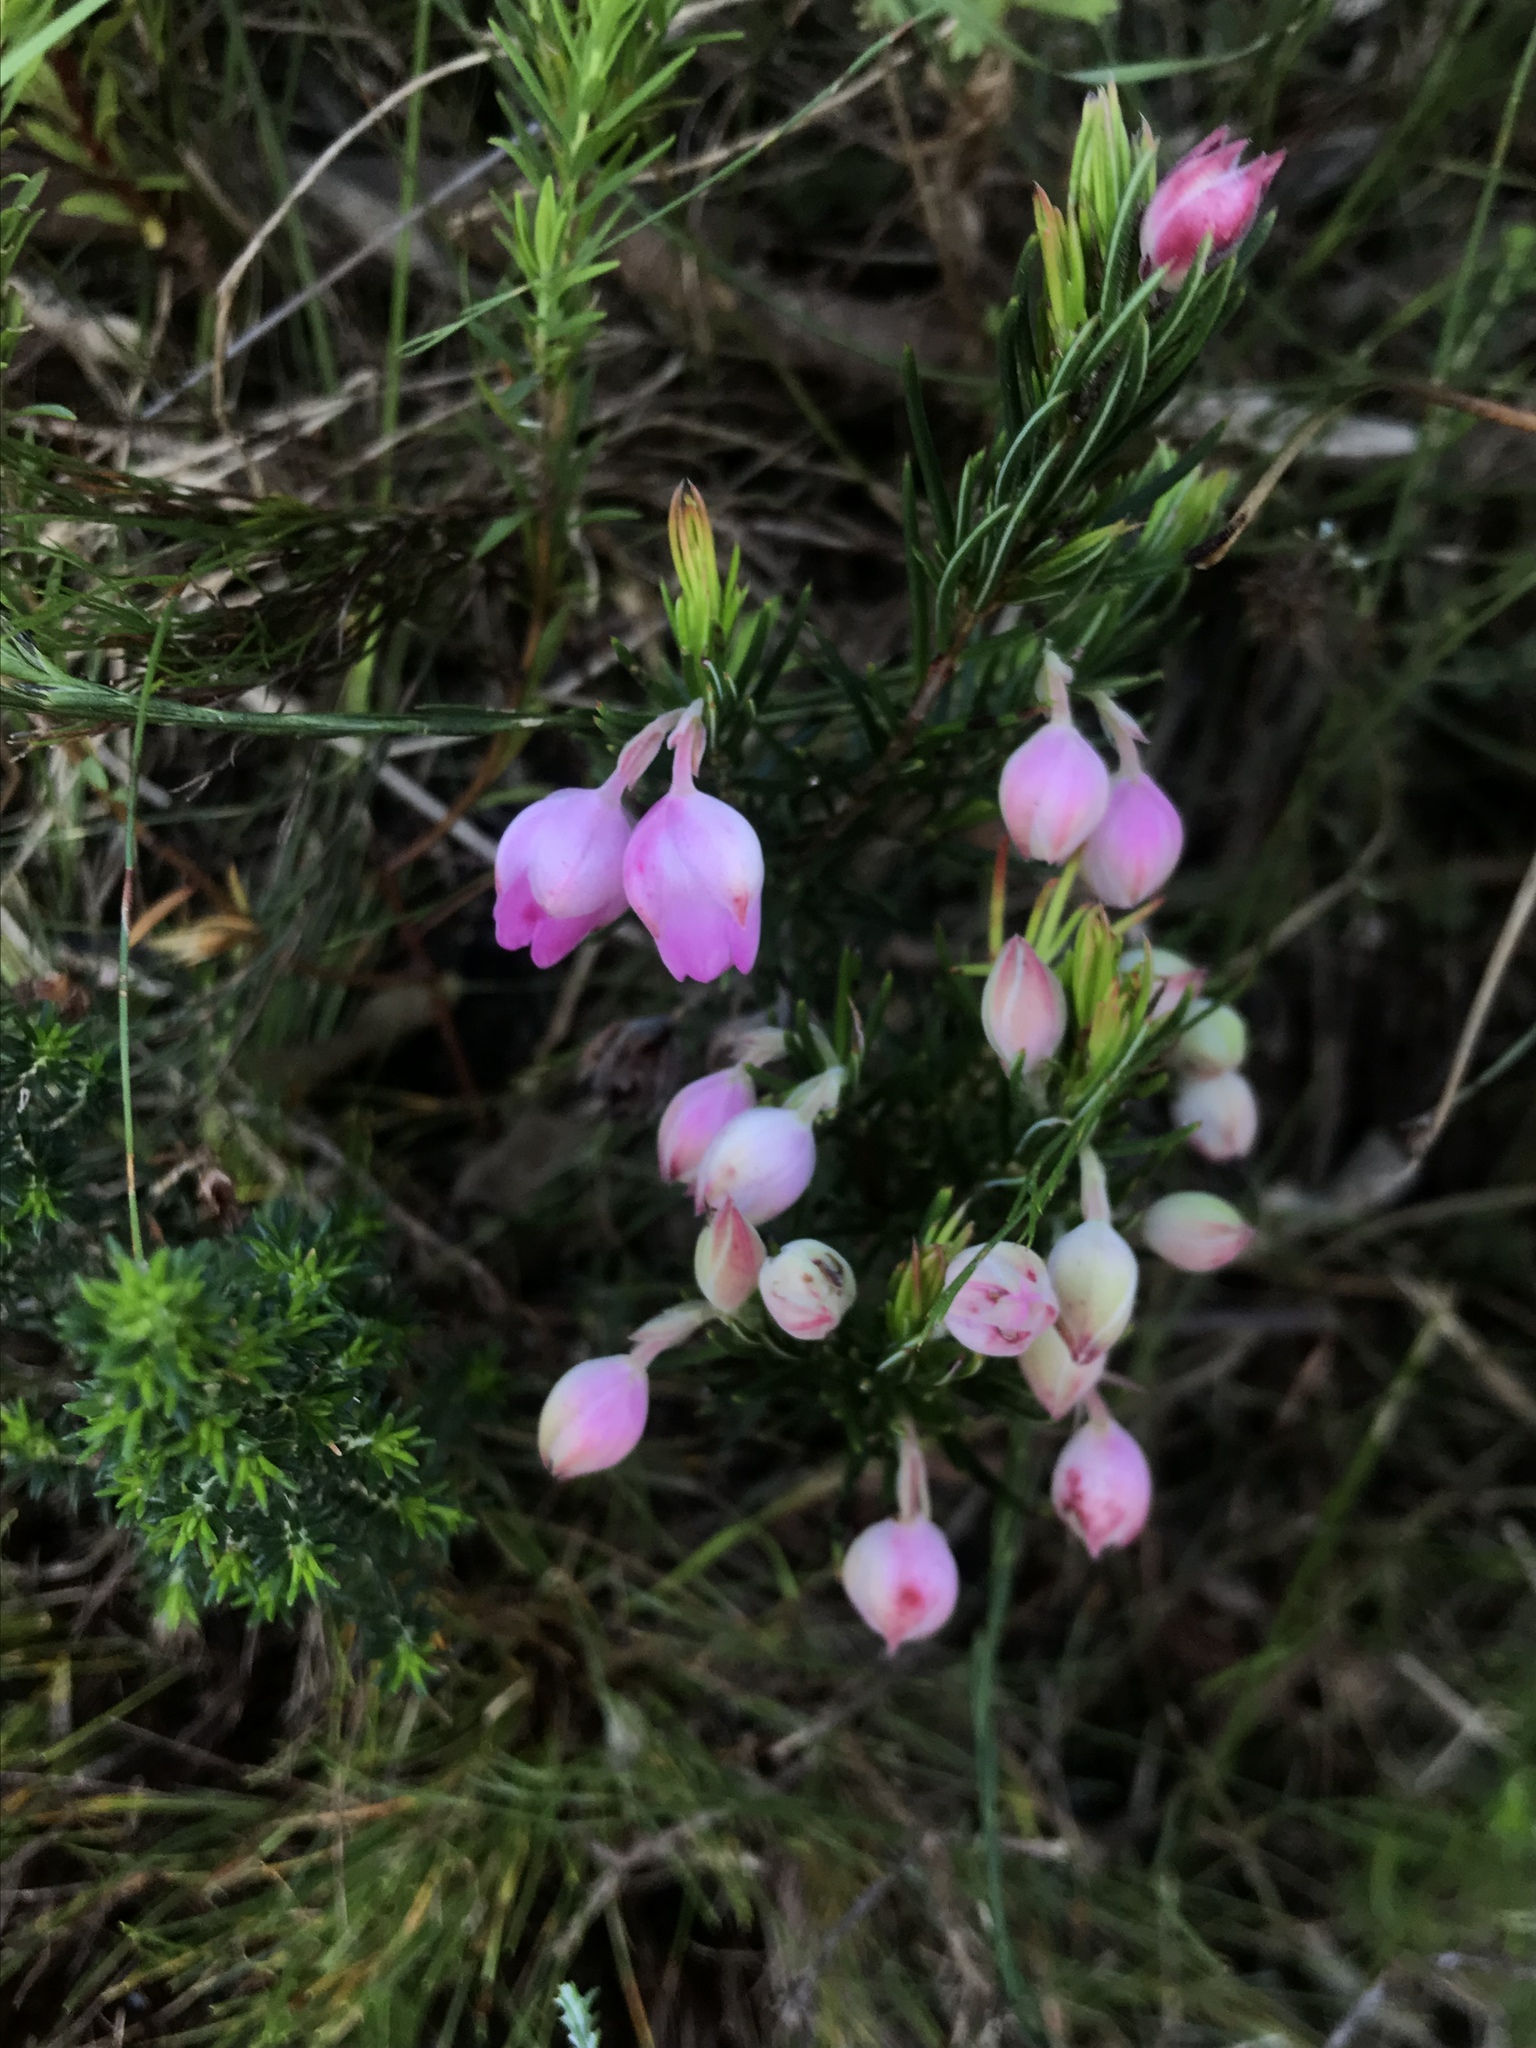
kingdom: Plantae
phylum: Tracheophyta
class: Magnoliopsida
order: Ericales
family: Ericaceae
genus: Erica
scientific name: Erica holosericea
